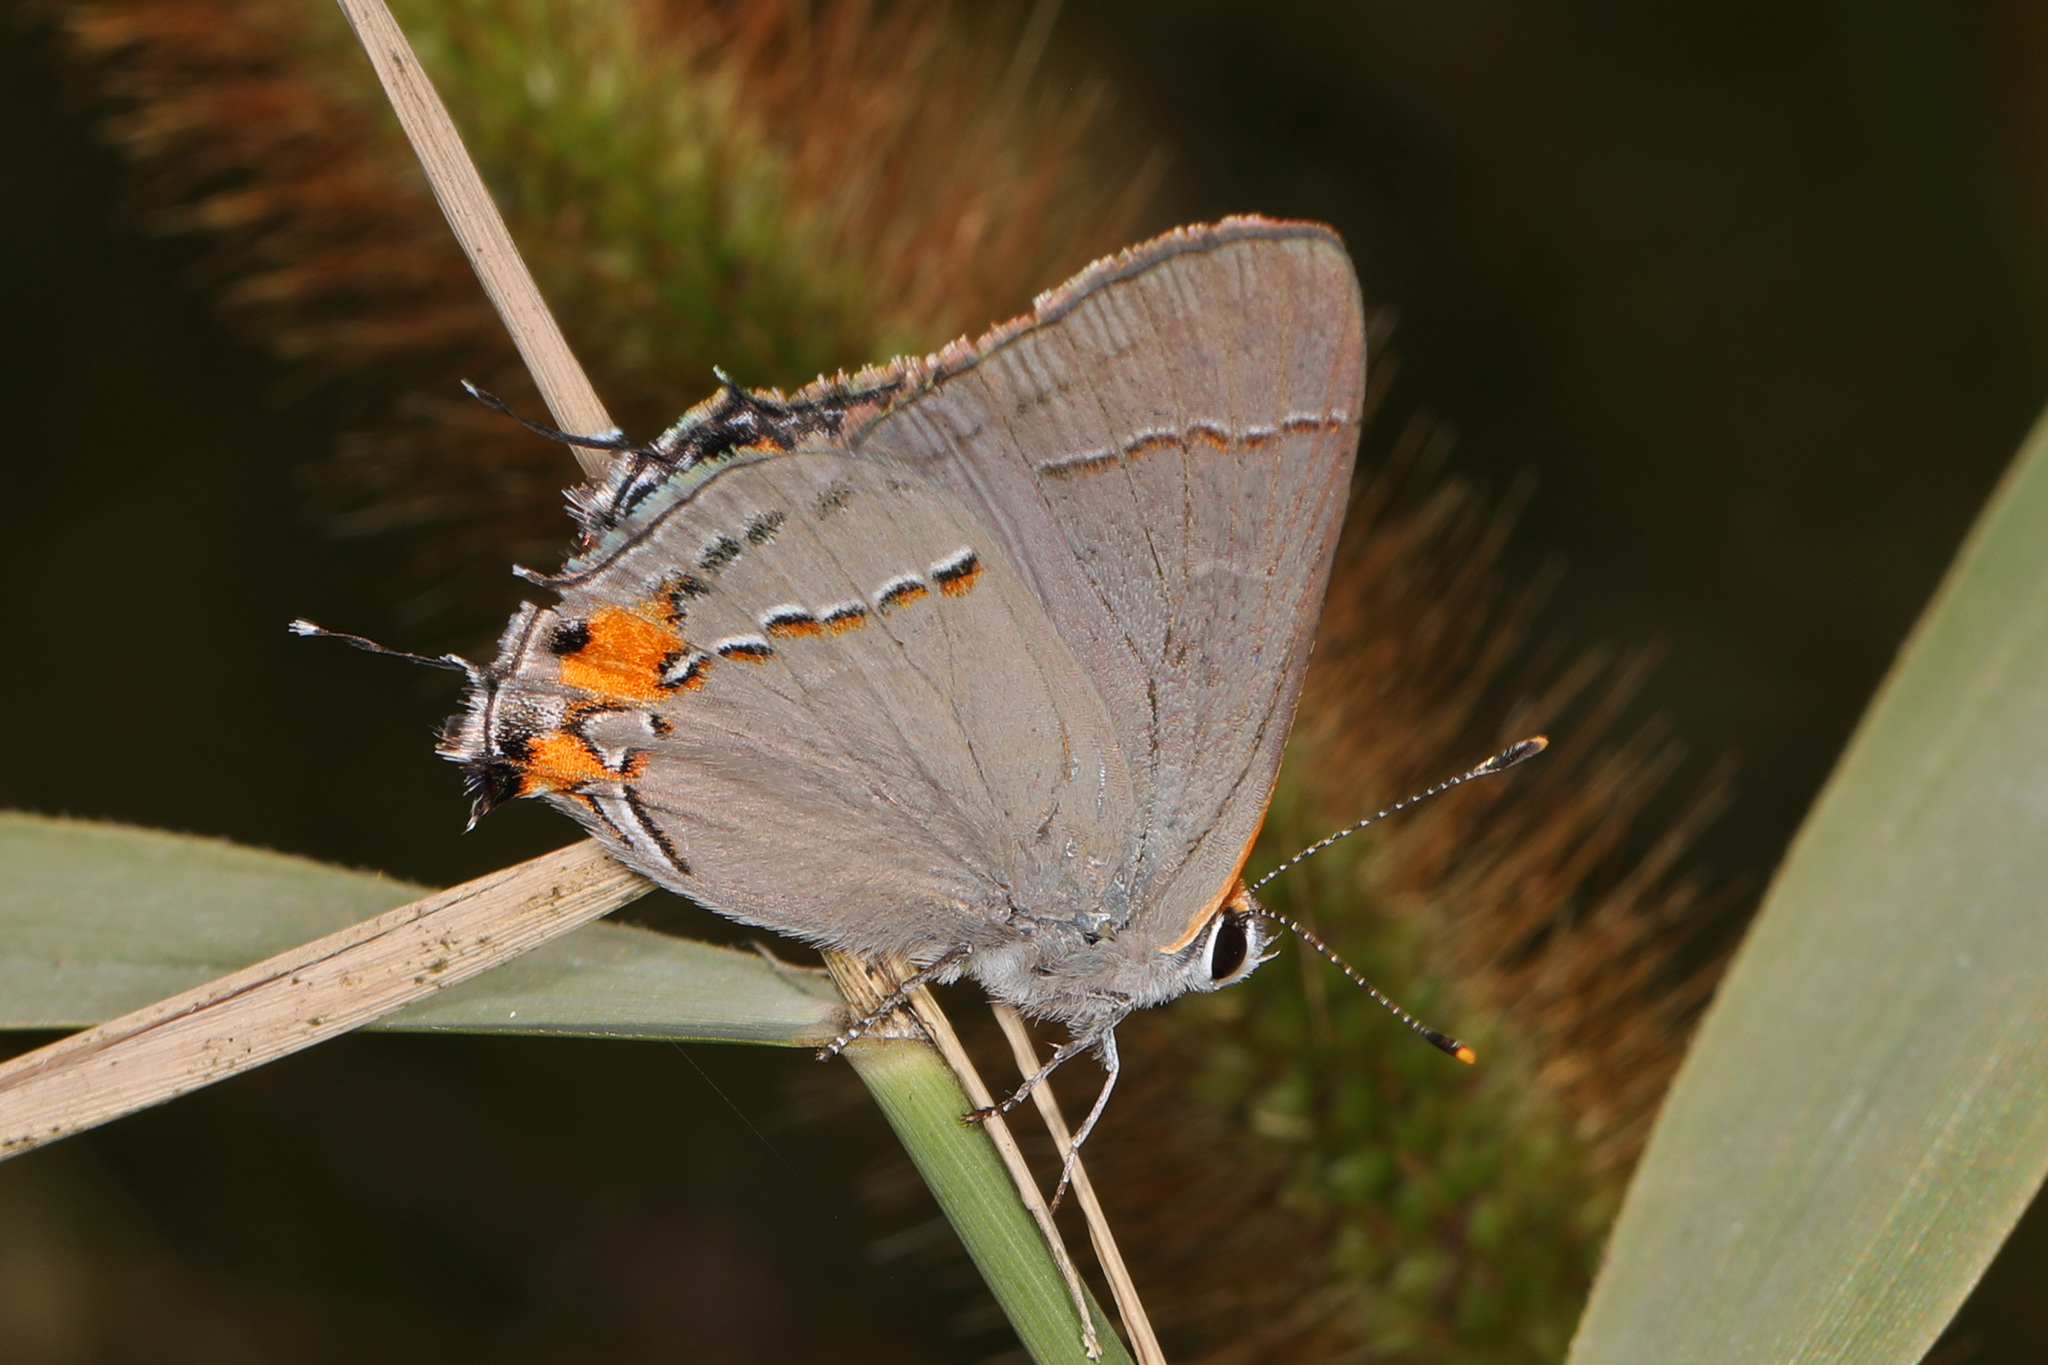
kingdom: Animalia
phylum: Arthropoda
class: Insecta
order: Lepidoptera
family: Lycaenidae
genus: Strymon
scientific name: Strymon melinus
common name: Gray hairstreak
